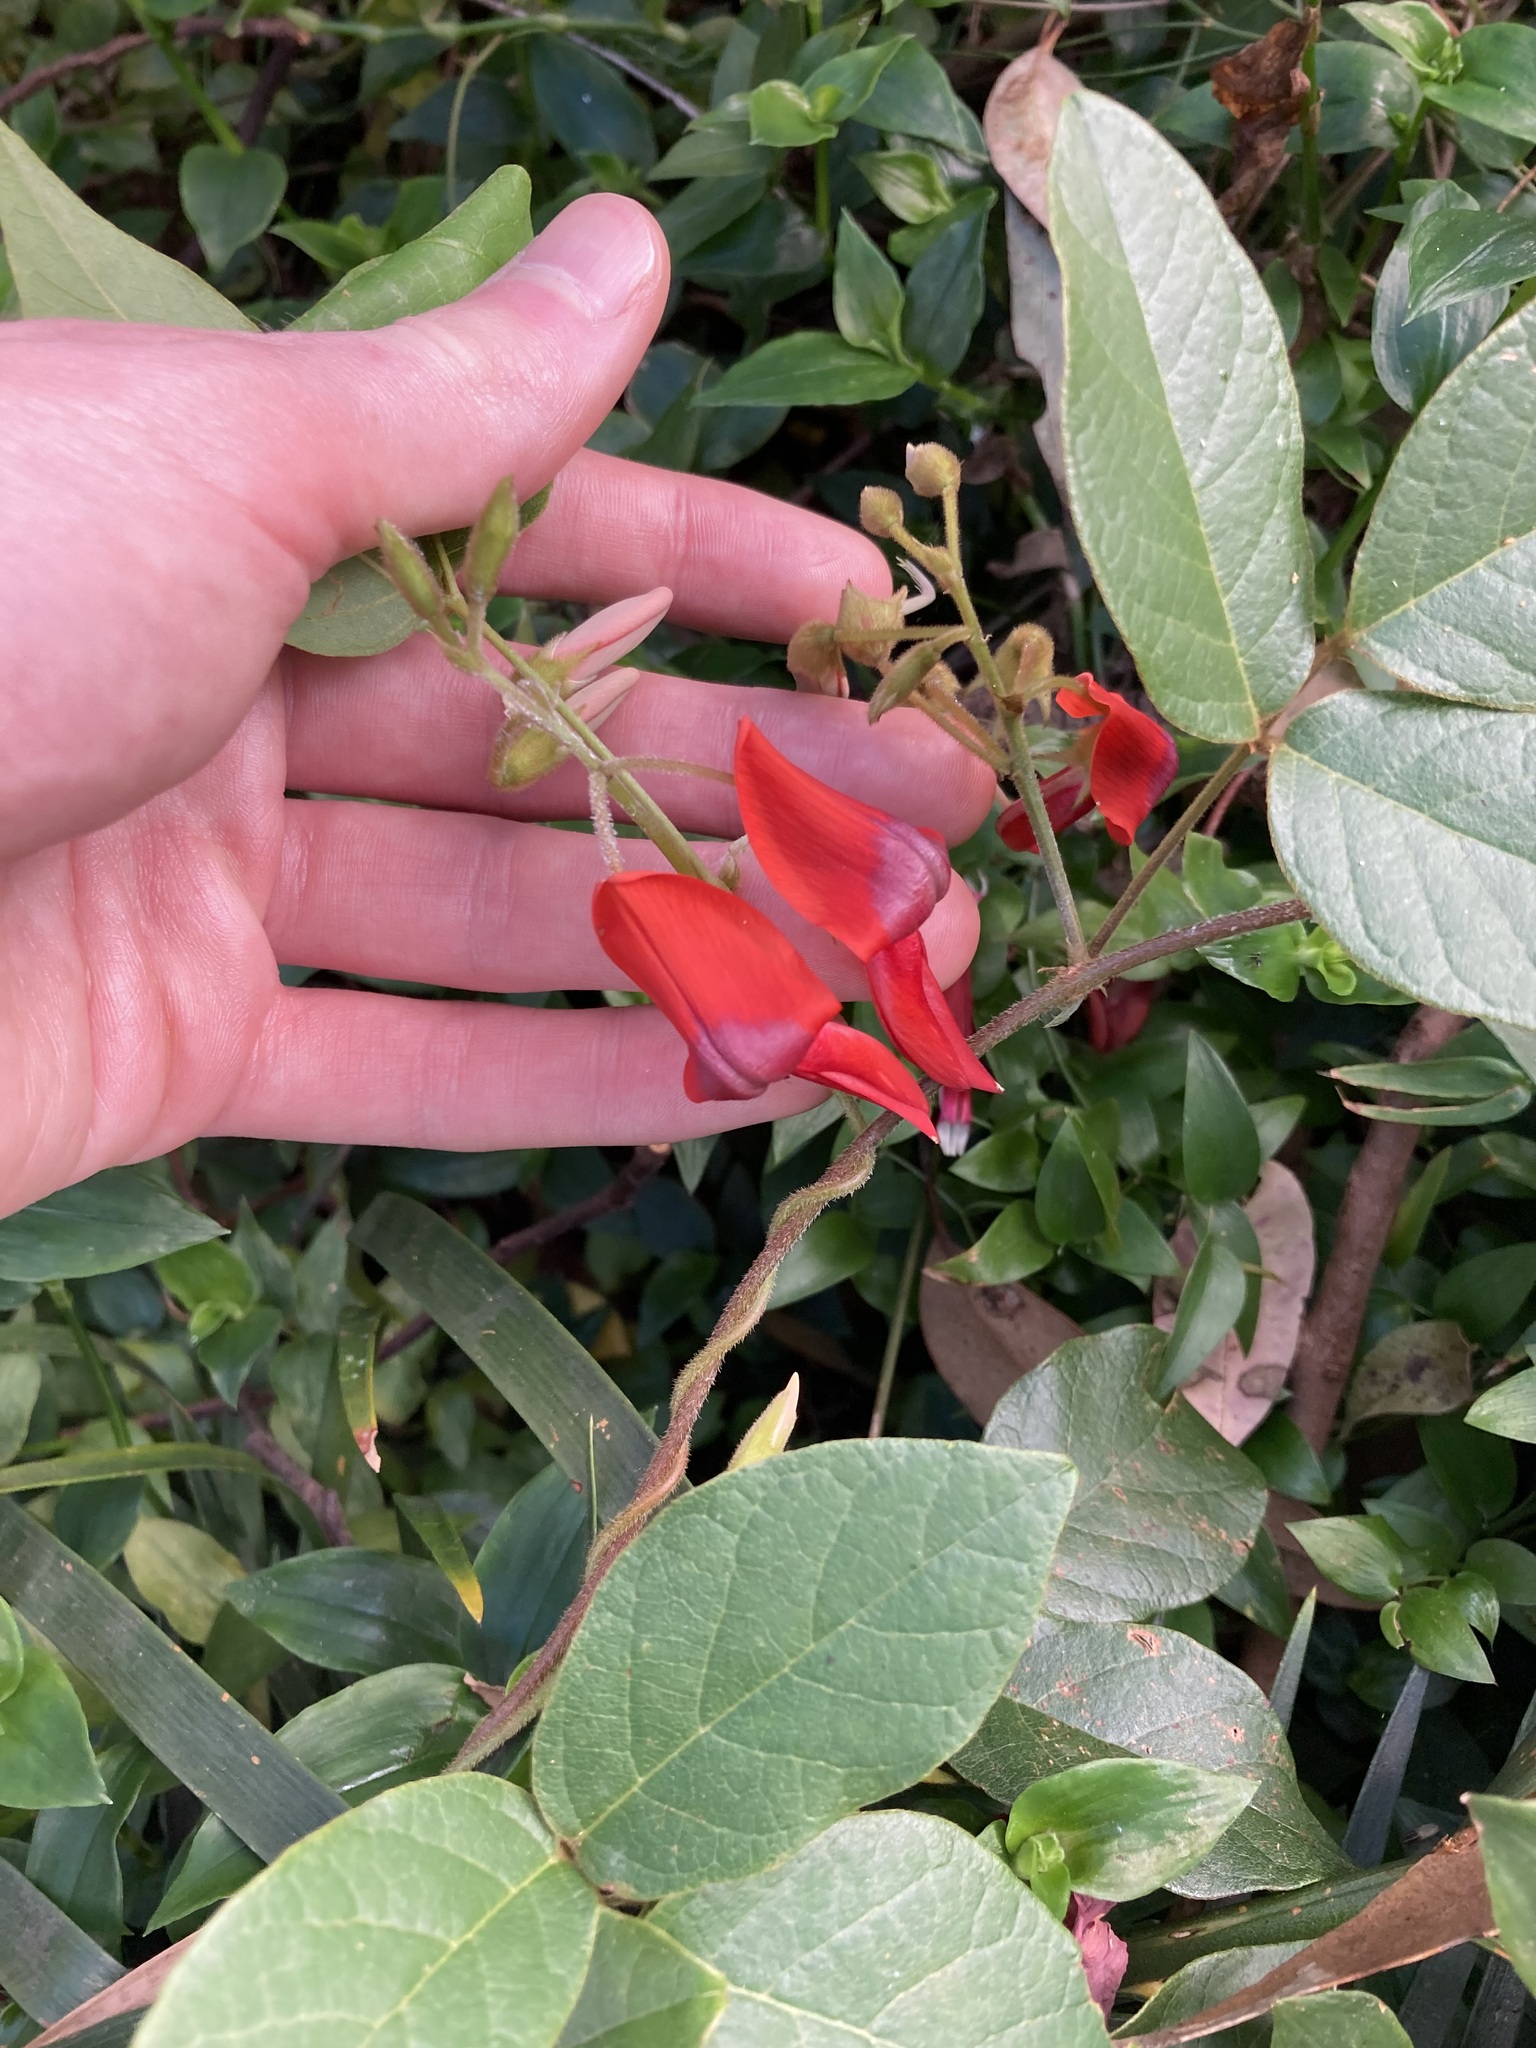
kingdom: Plantae
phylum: Tracheophyta
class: Magnoliopsida
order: Fabales
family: Fabaceae
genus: Kennedia
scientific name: Kennedia rubicunda
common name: Red kennedy-pea
